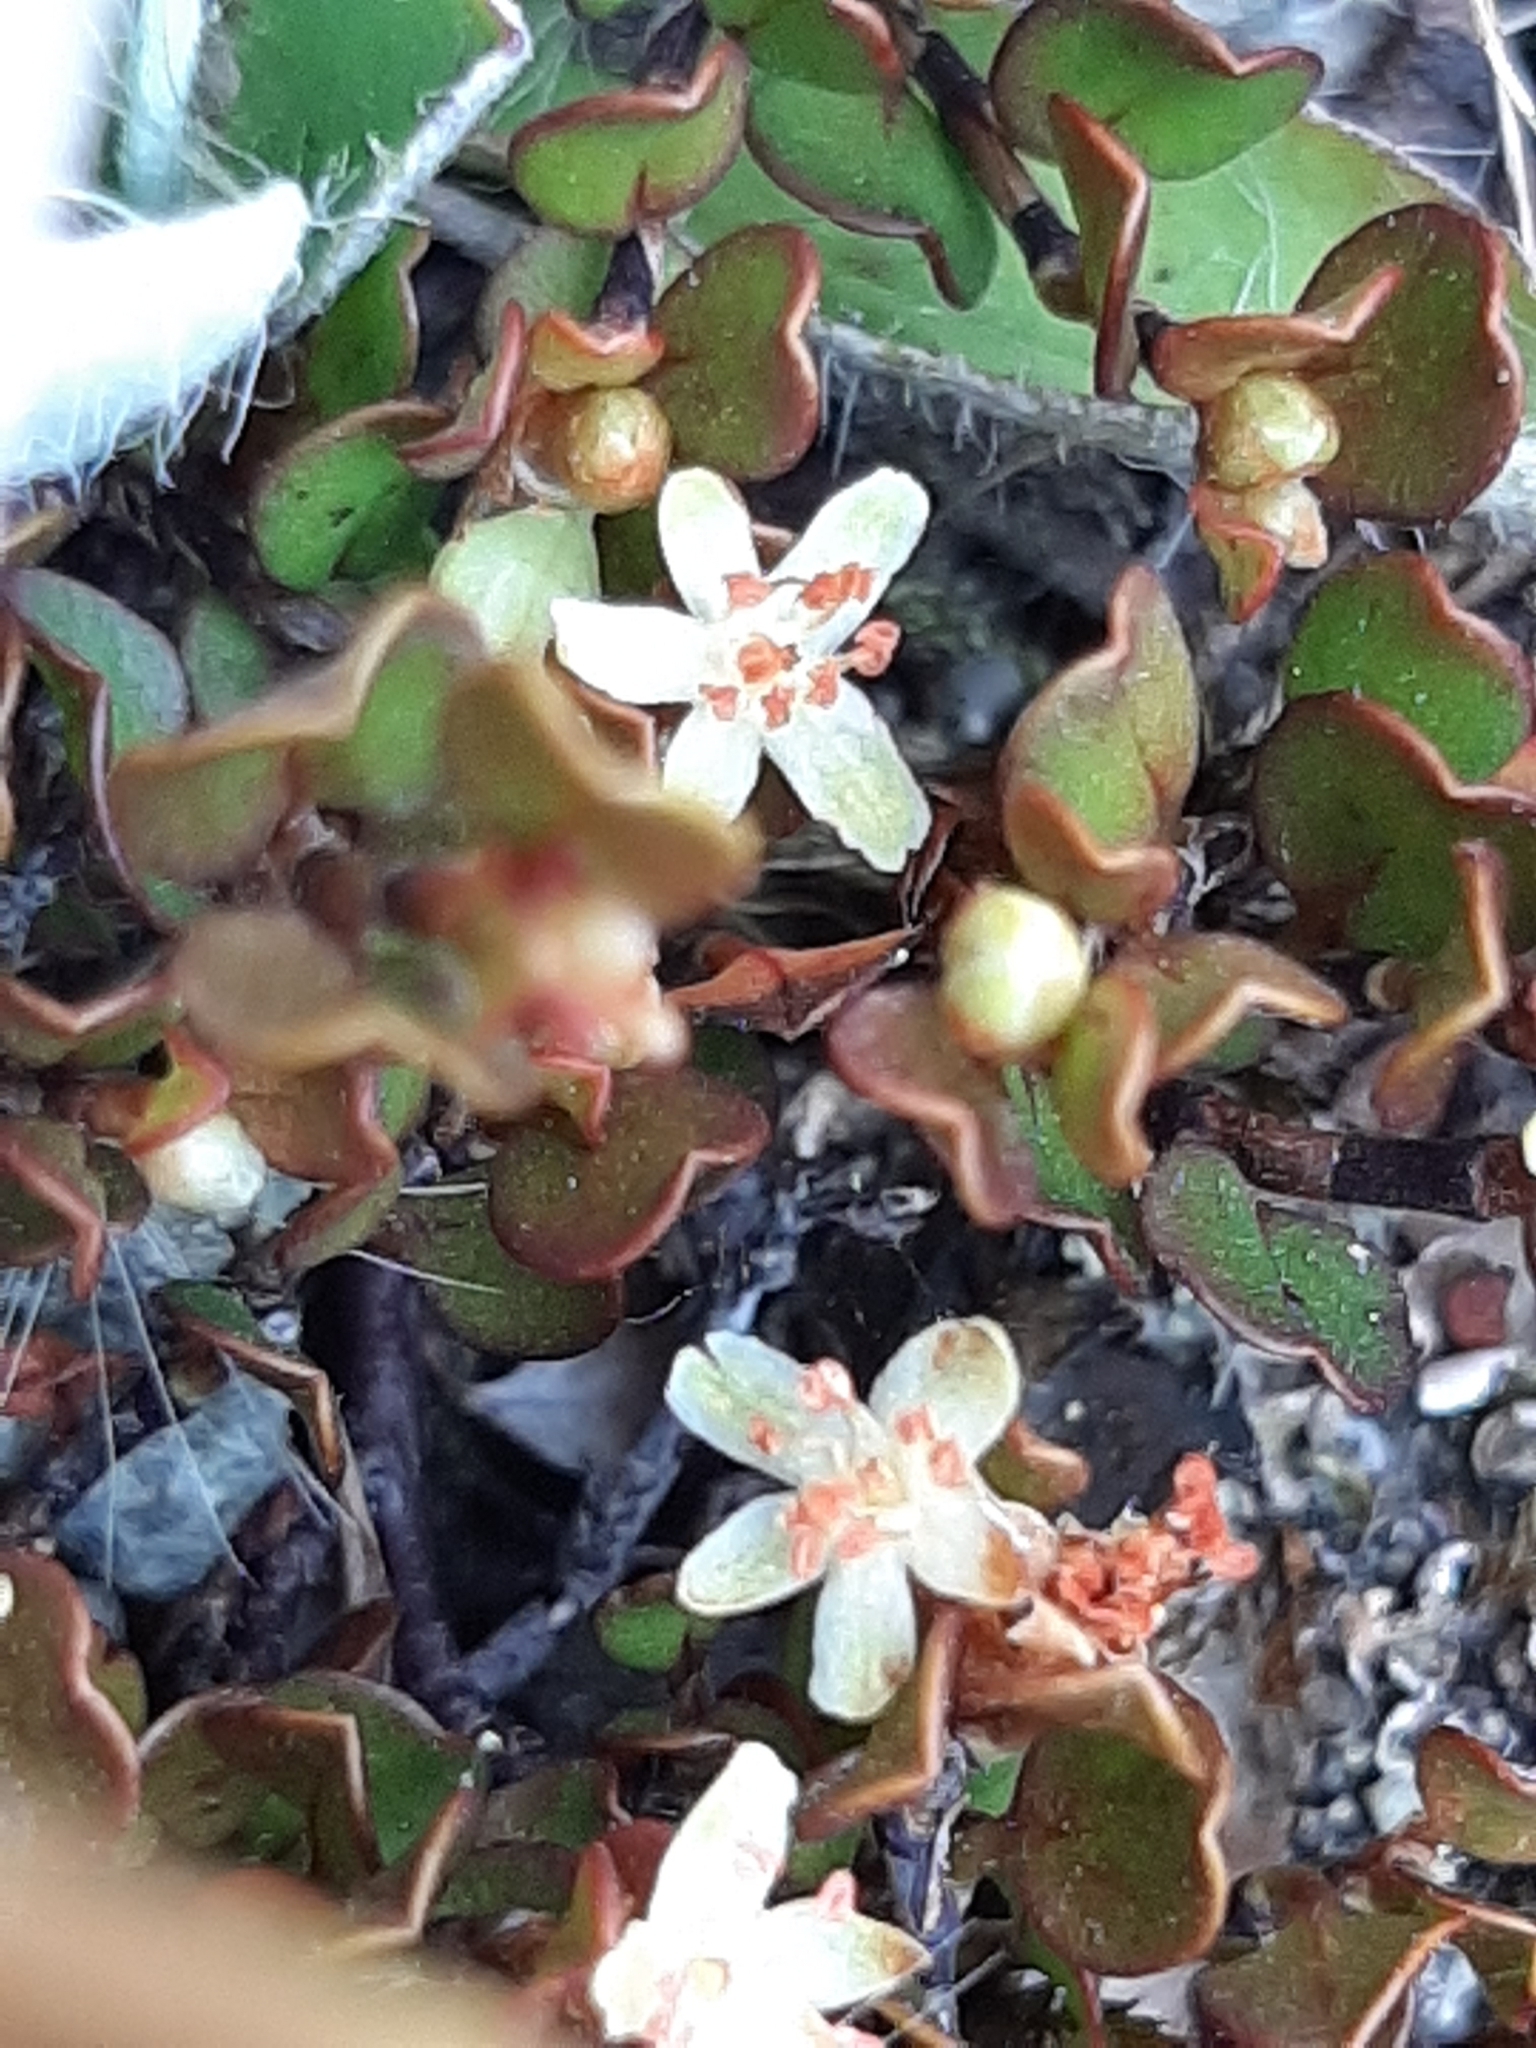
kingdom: Plantae
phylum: Tracheophyta
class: Magnoliopsida
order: Caryophyllales
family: Polygonaceae
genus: Muehlenbeckia
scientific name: Muehlenbeckia axillaris
